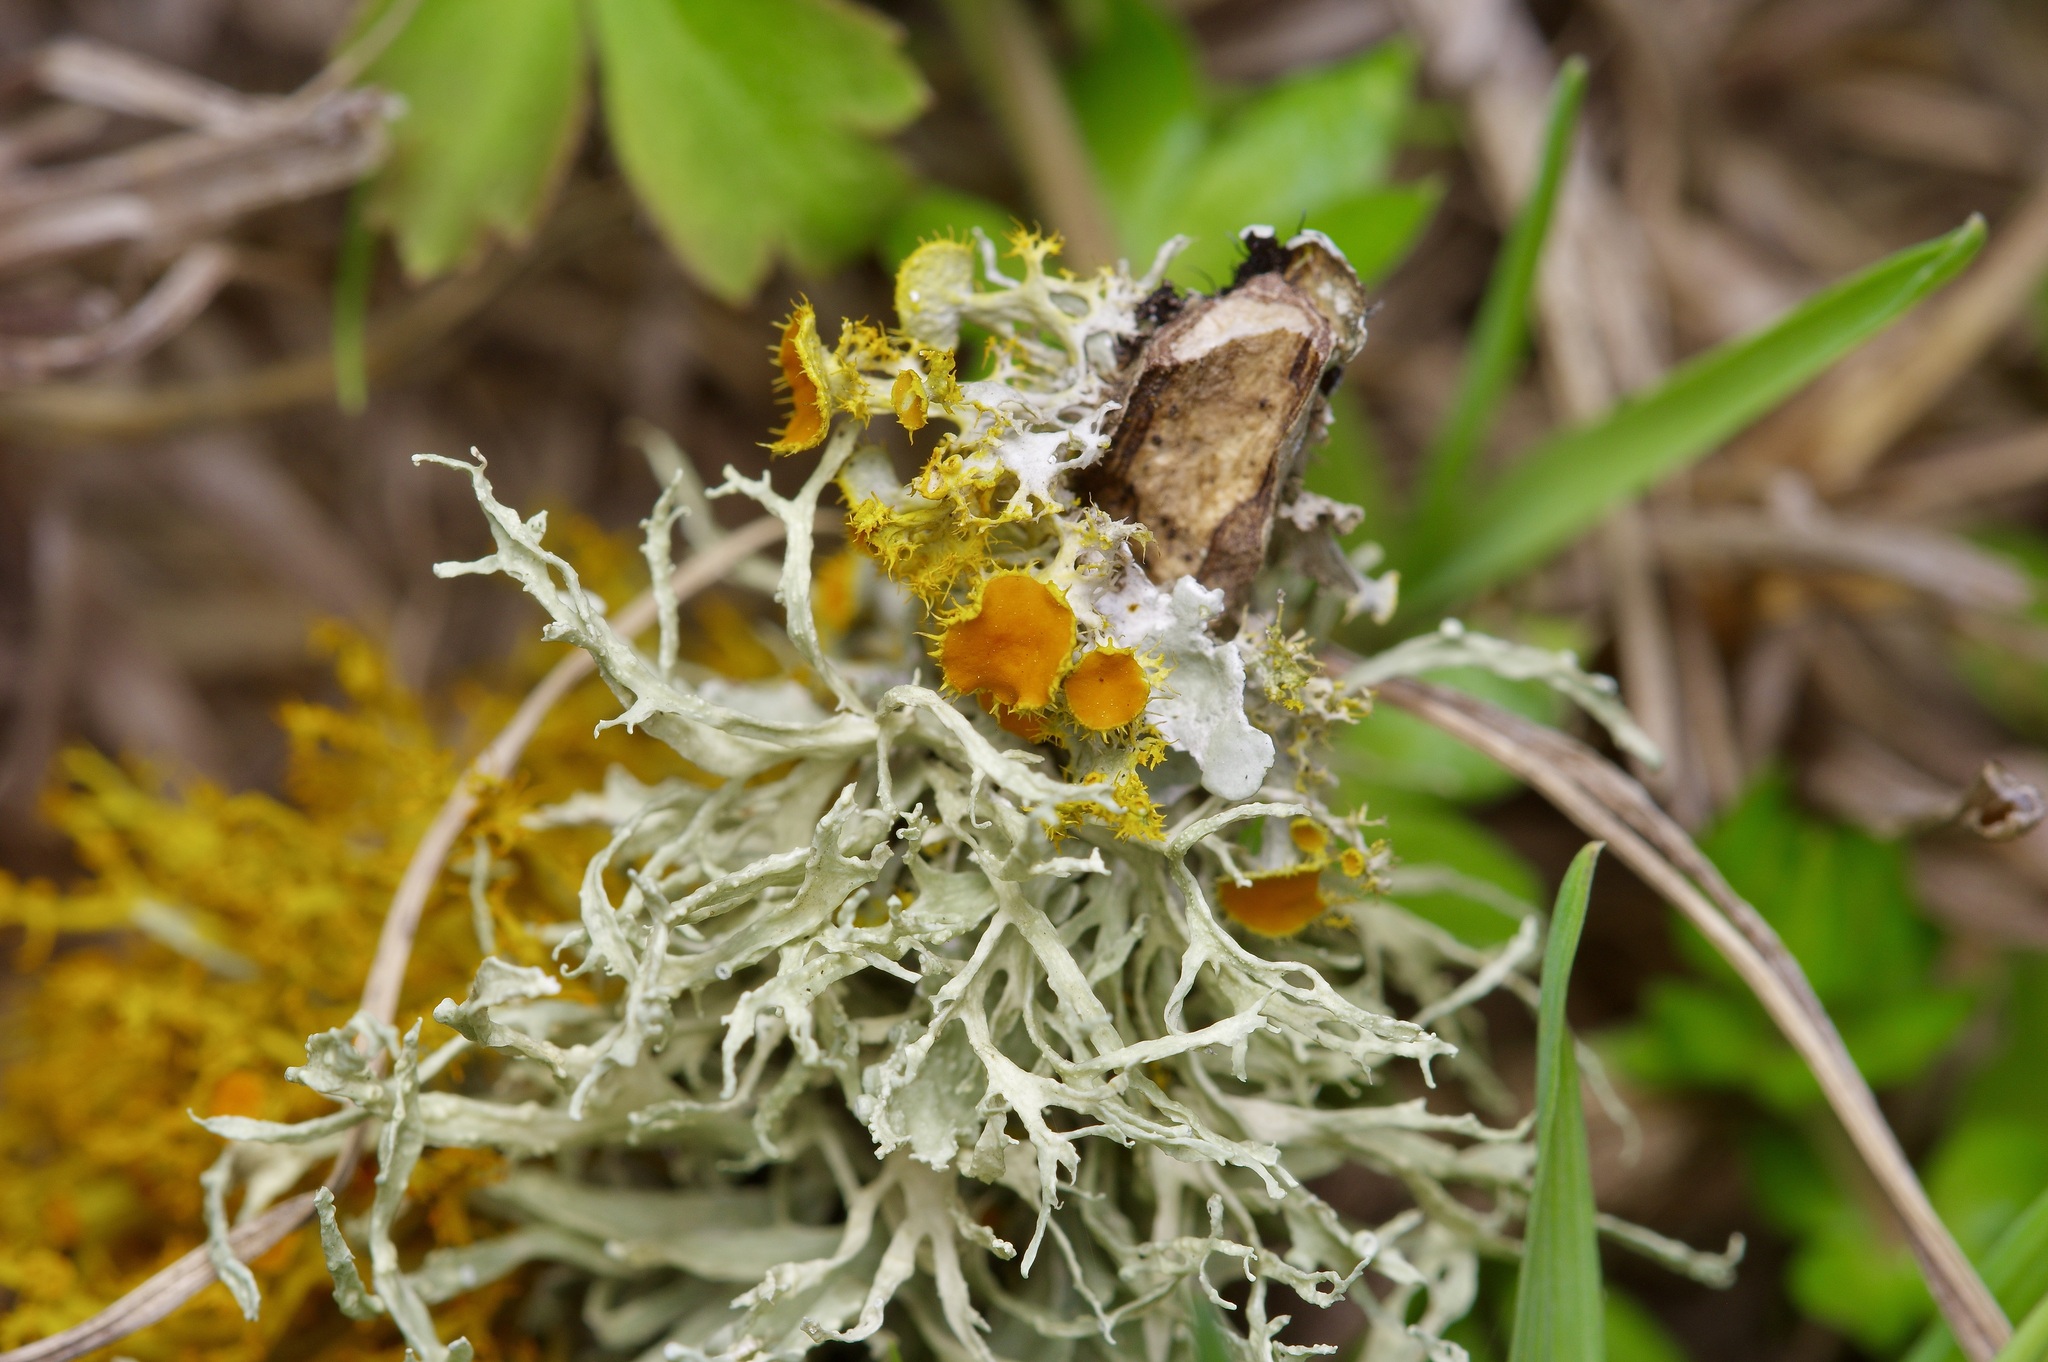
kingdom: Fungi
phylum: Ascomycota
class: Lecanoromycetes
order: Teloschistales
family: Teloschistaceae
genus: Niorma
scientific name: Niorma chrysophthalma
